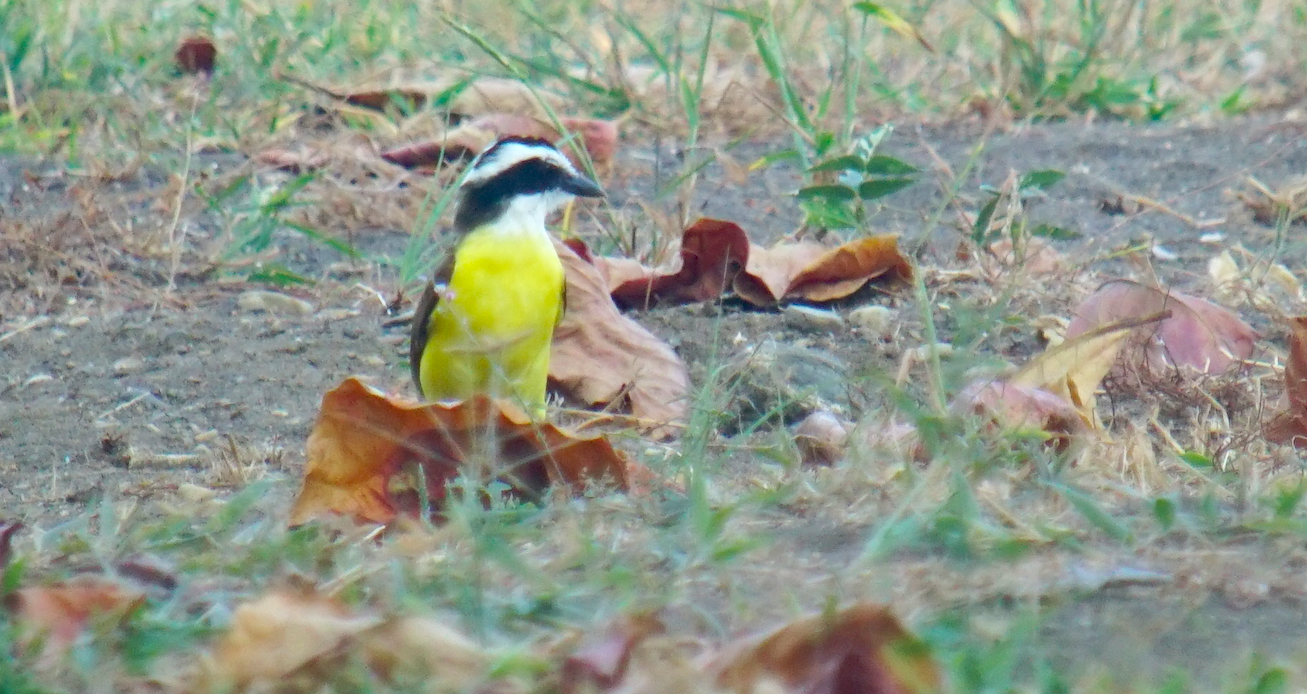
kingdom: Animalia
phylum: Chordata
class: Aves
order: Passeriformes
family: Tyrannidae
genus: Pitangus
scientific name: Pitangus sulphuratus
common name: Great kiskadee
